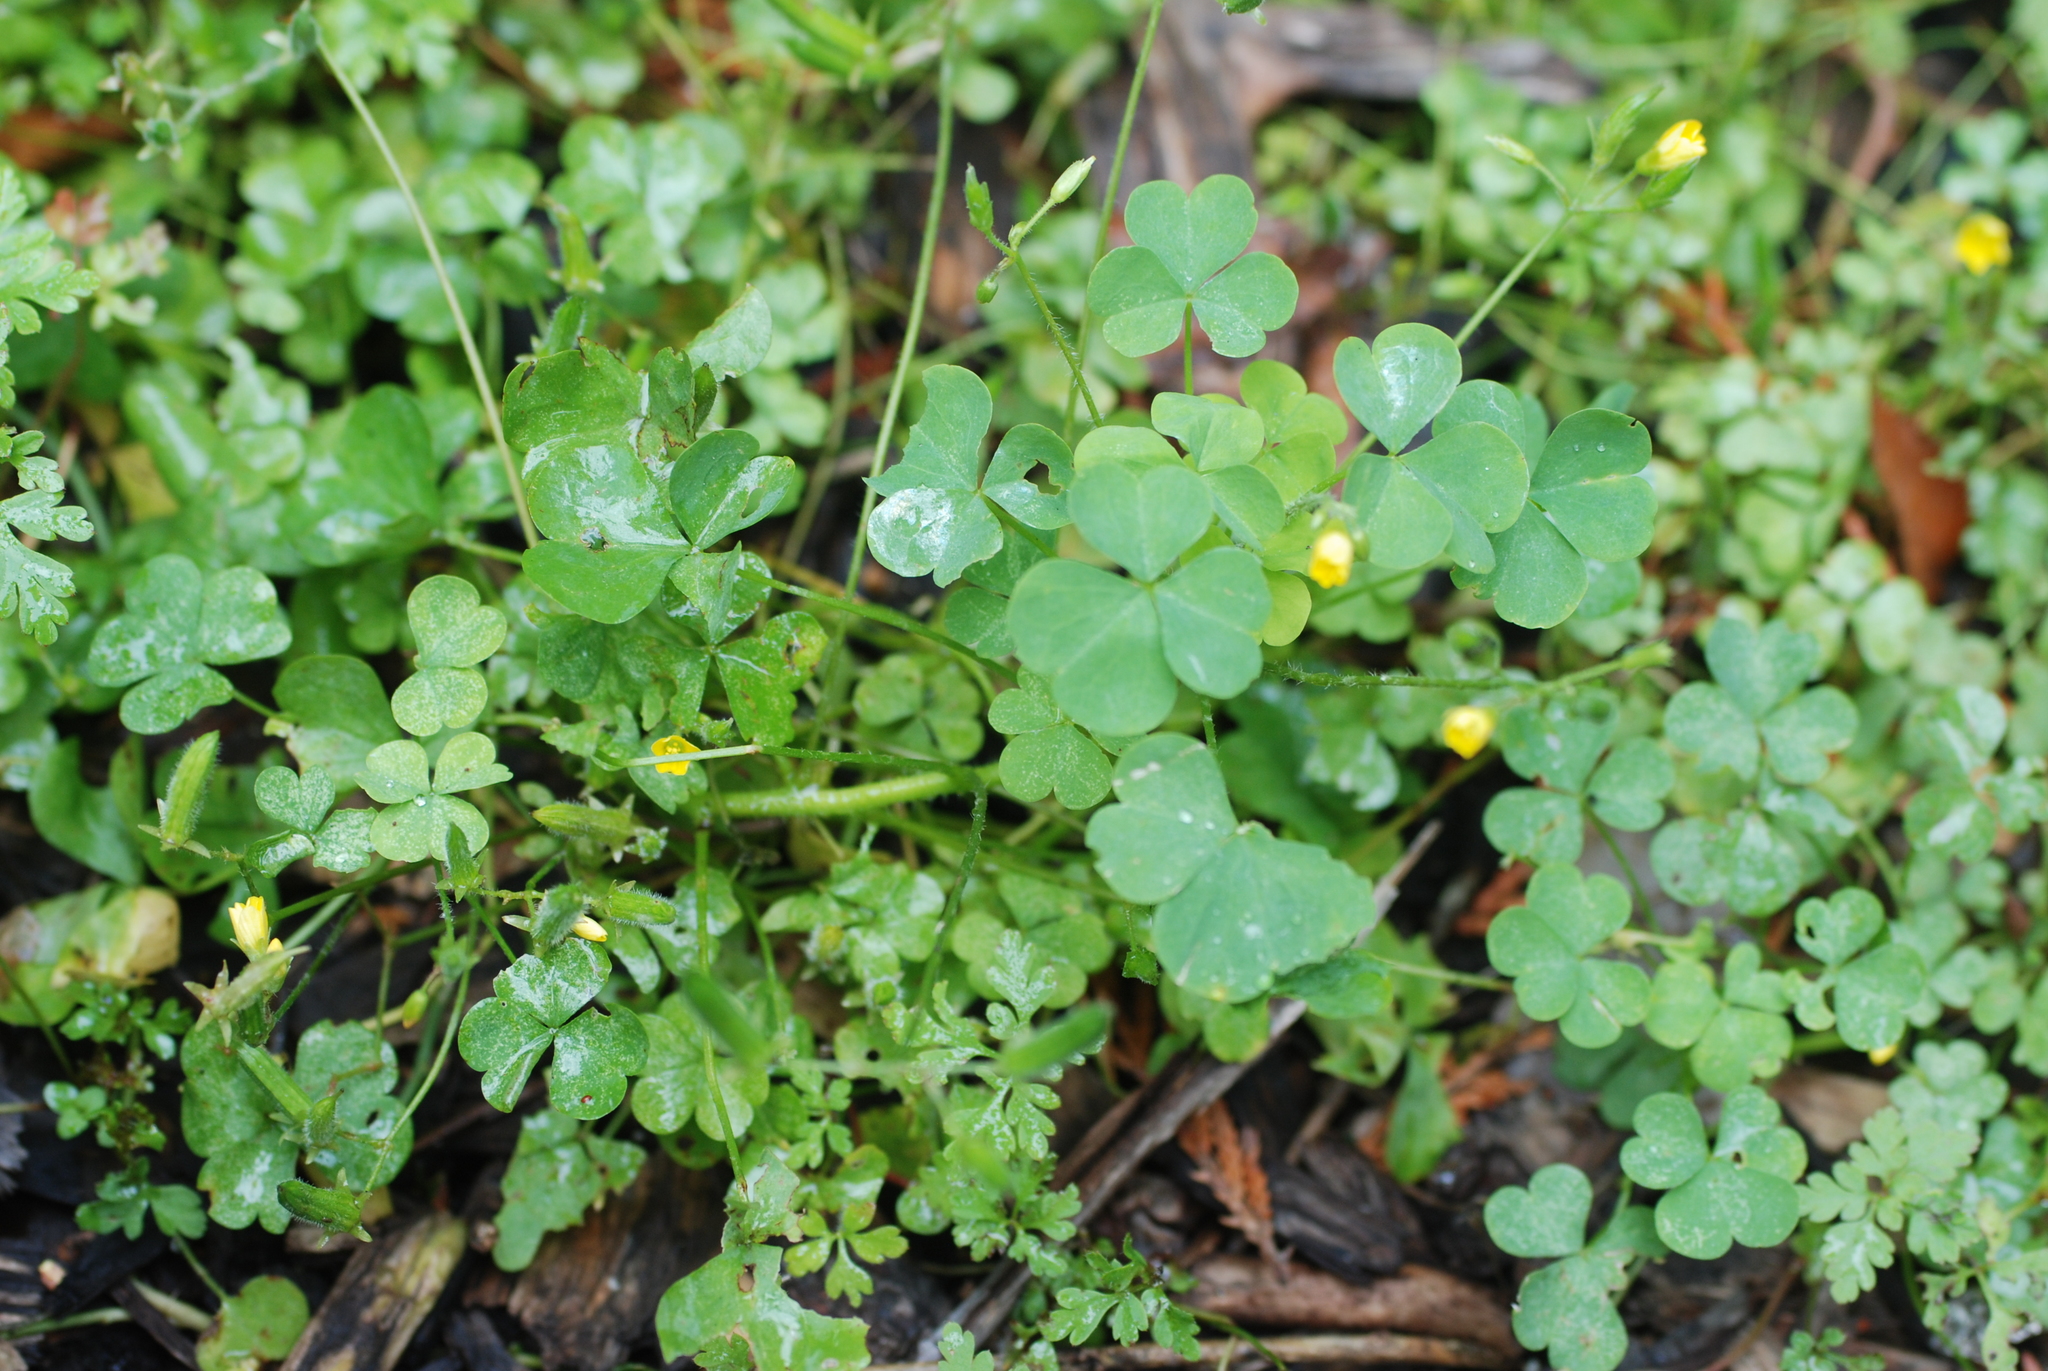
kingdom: Plantae
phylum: Tracheophyta
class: Magnoliopsida
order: Oxalidales
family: Oxalidaceae
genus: Oxalis
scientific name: Oxalis dillenii
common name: Sussex yellow-sorrel
